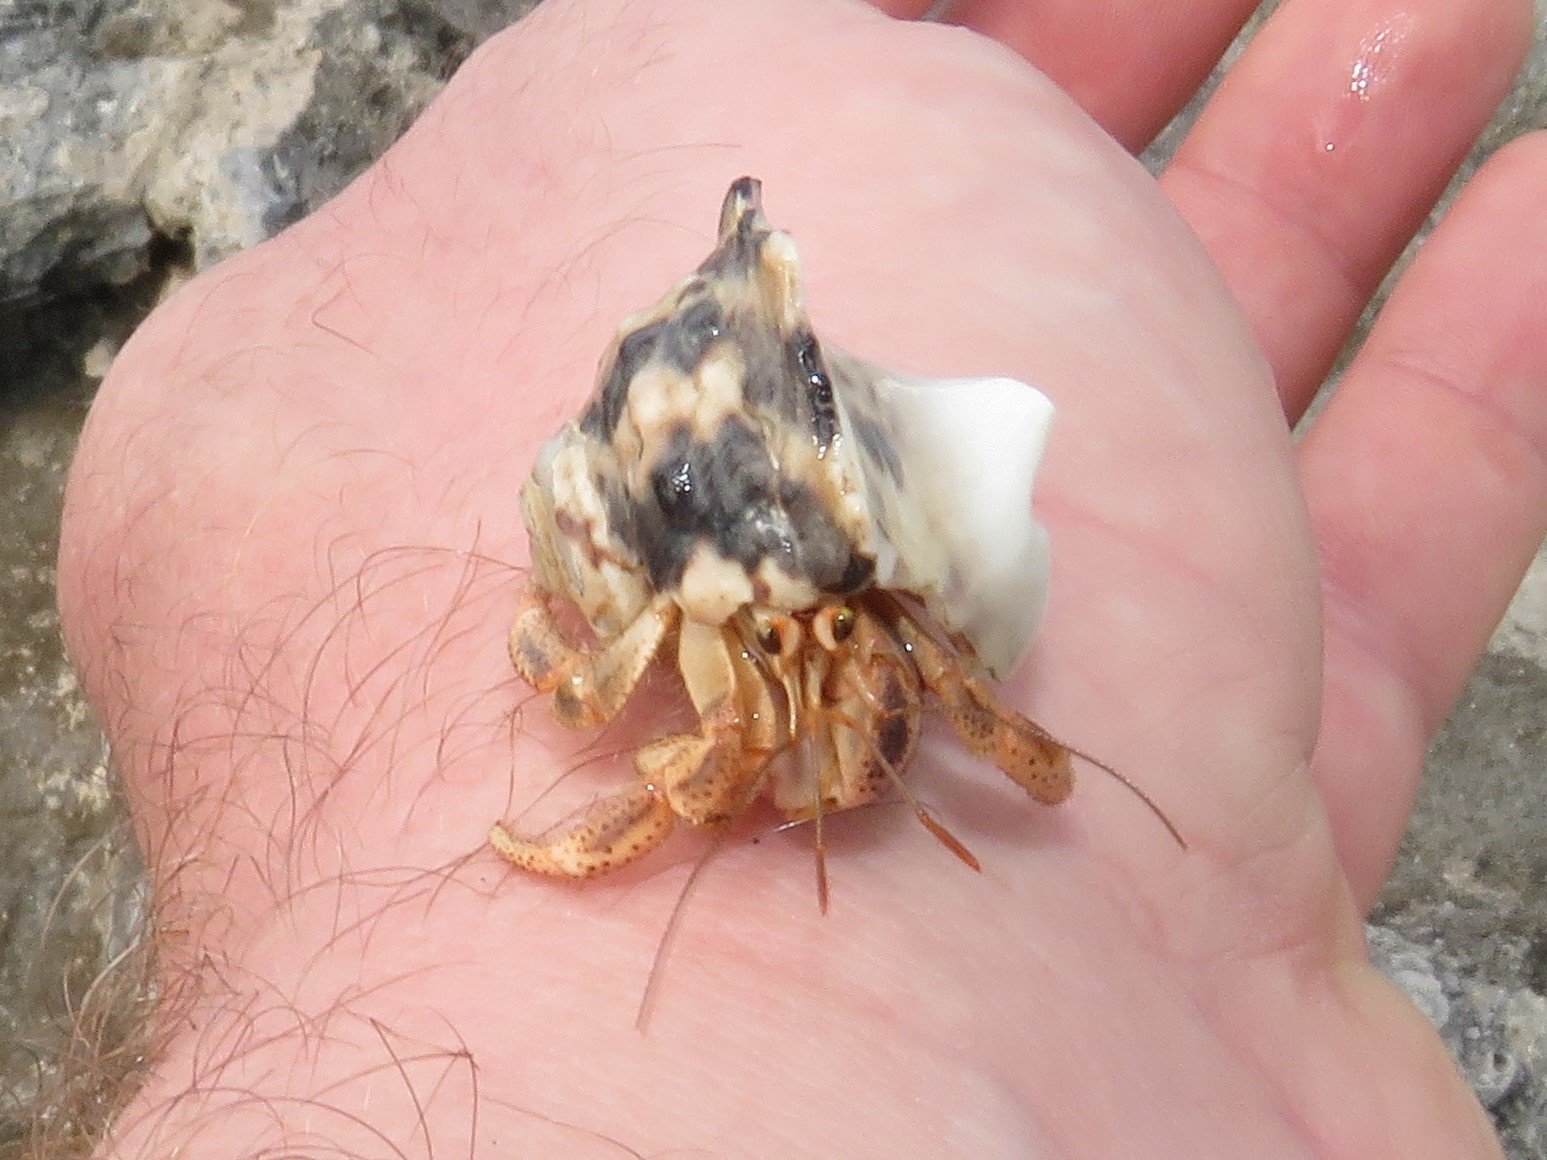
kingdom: Animalia
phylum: Arthropoda
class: Malacostraca
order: Decapoda
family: Coenobitidae
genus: Coenobita
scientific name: Coenobita clypeatus
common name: Caribbean hermit crab
